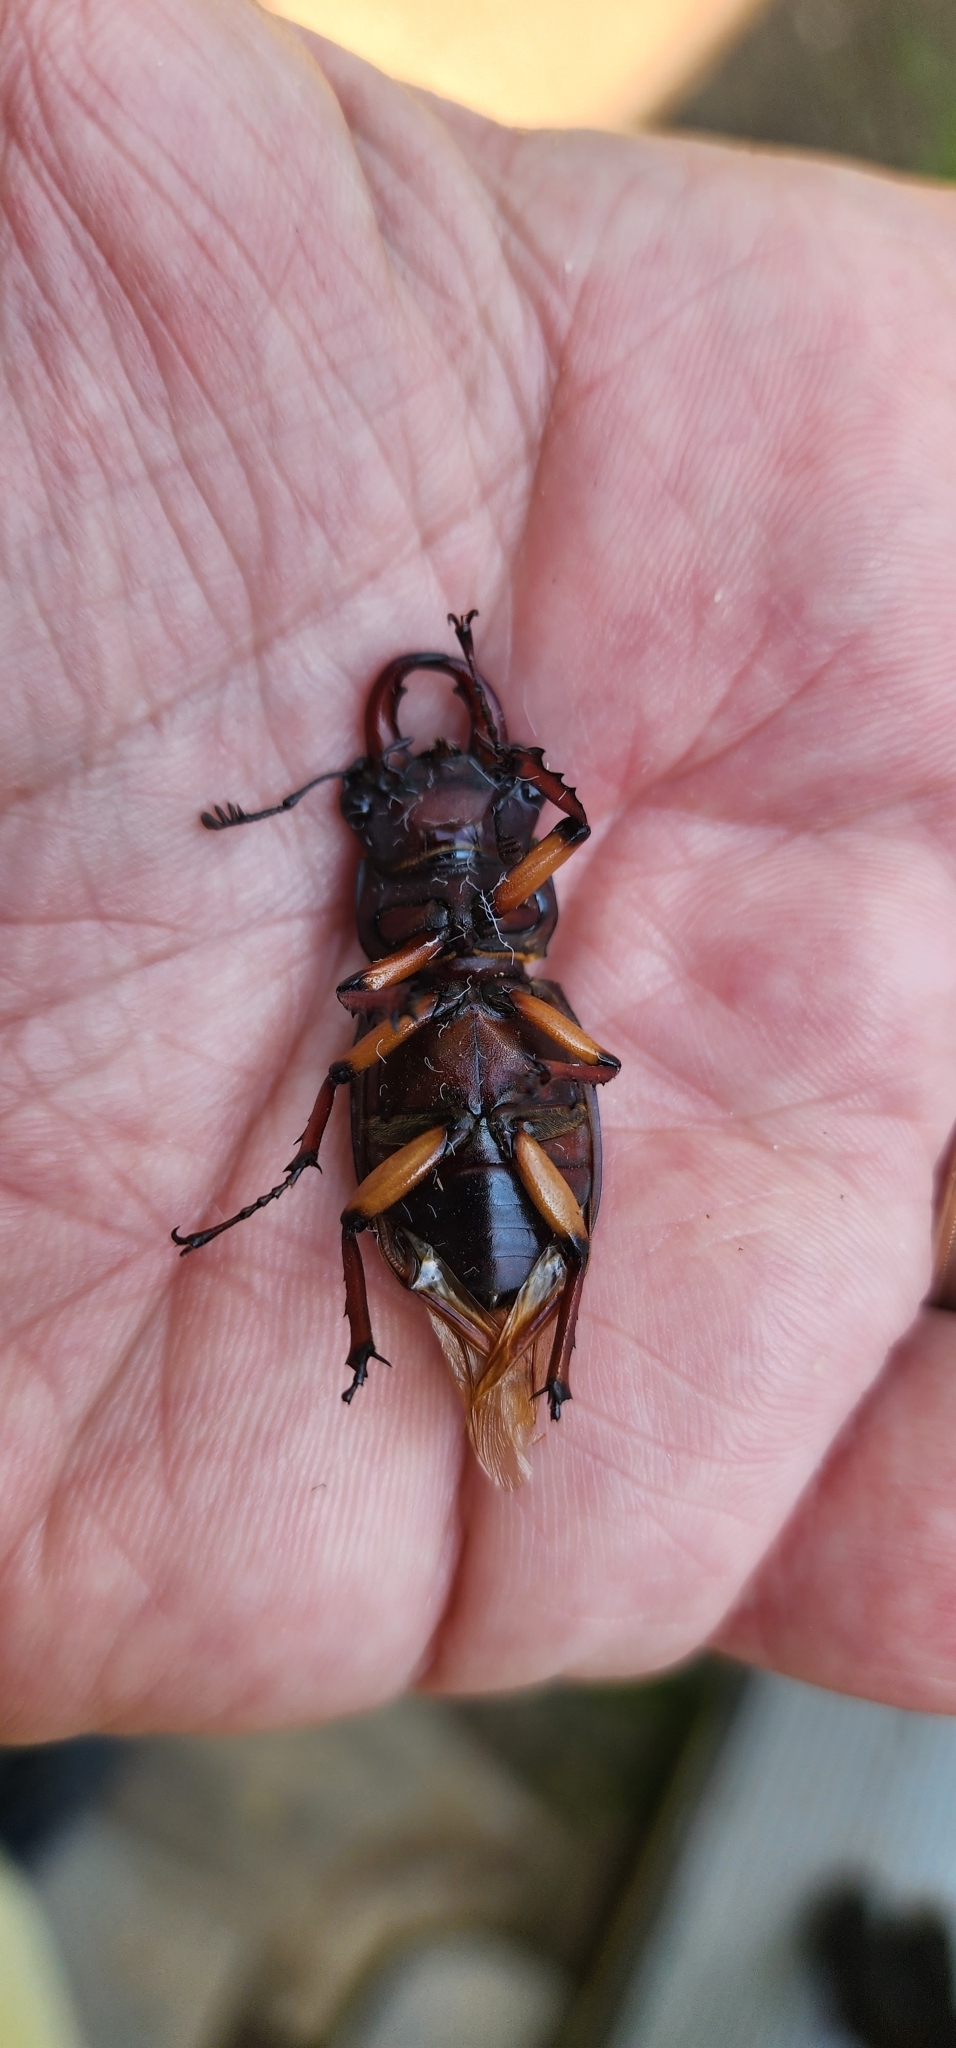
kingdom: Animalia
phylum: Arthropoda
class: Insecta
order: Coleoptera
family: Lucanidae
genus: Lucanus
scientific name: Lucanus capreolus
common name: Stag beetle
